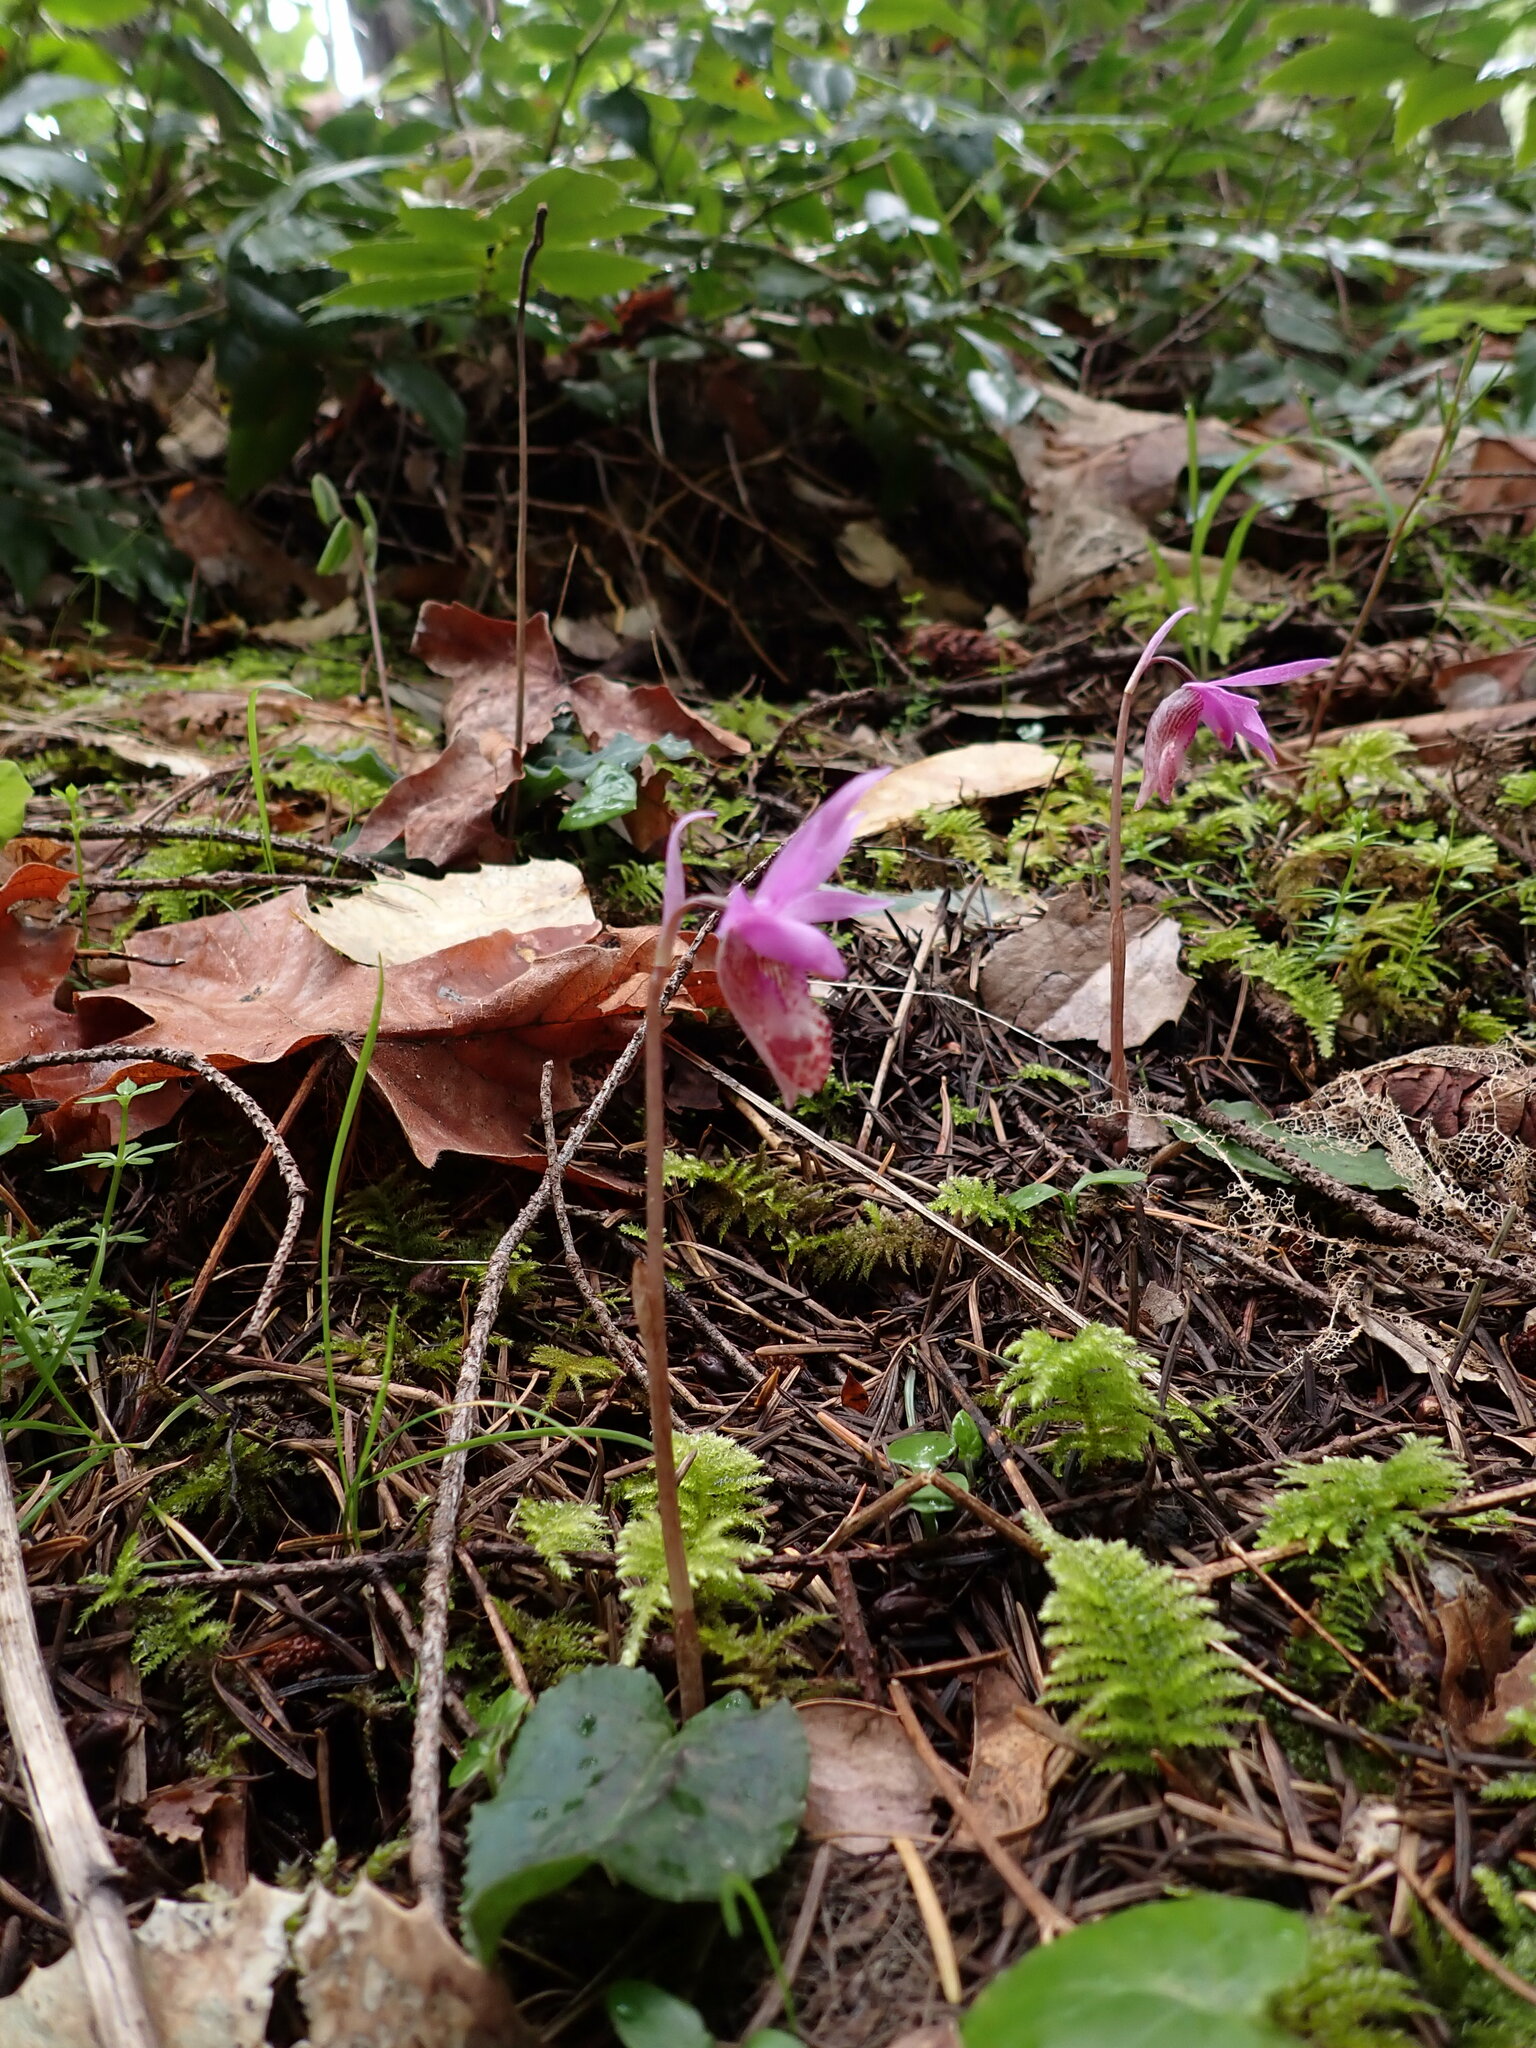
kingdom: Plantae
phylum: Tracheophyta
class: Liliopsida
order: Asparagales
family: Orchidaceae
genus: Calypso
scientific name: Calypso bulbosa
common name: Calypso
